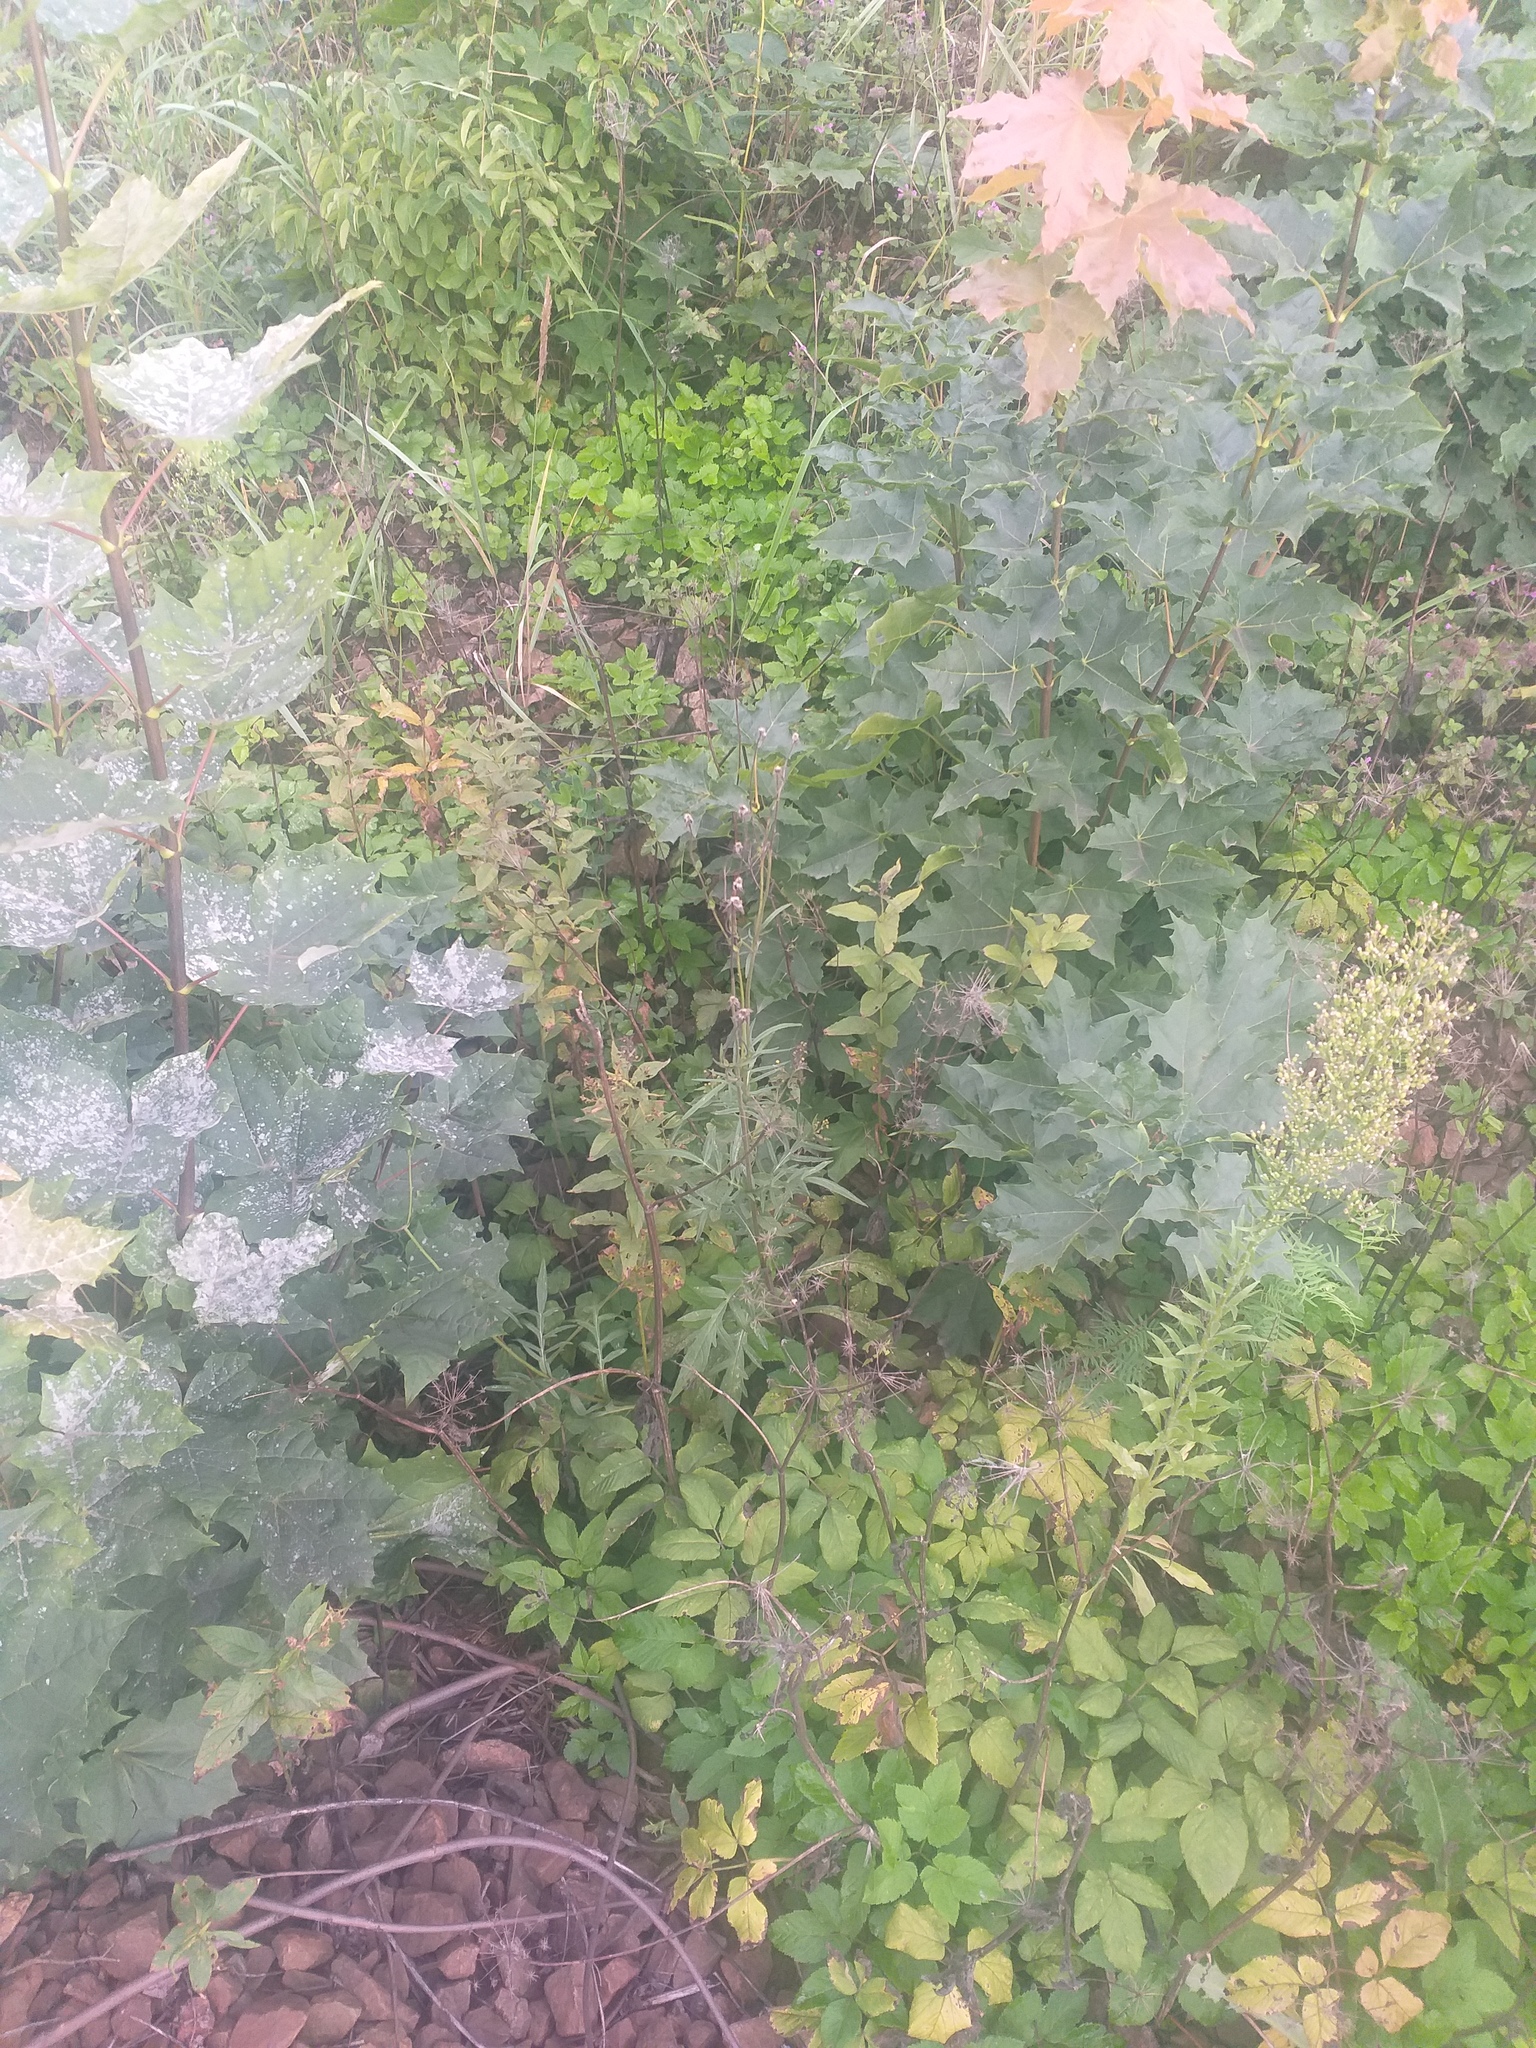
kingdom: Plantae
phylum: Tracheophyta
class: Magnoliopsida
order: Dipsacales
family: Caprifoliaceae
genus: Knautia
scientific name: Knautia arvensis
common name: Field scabiosa
